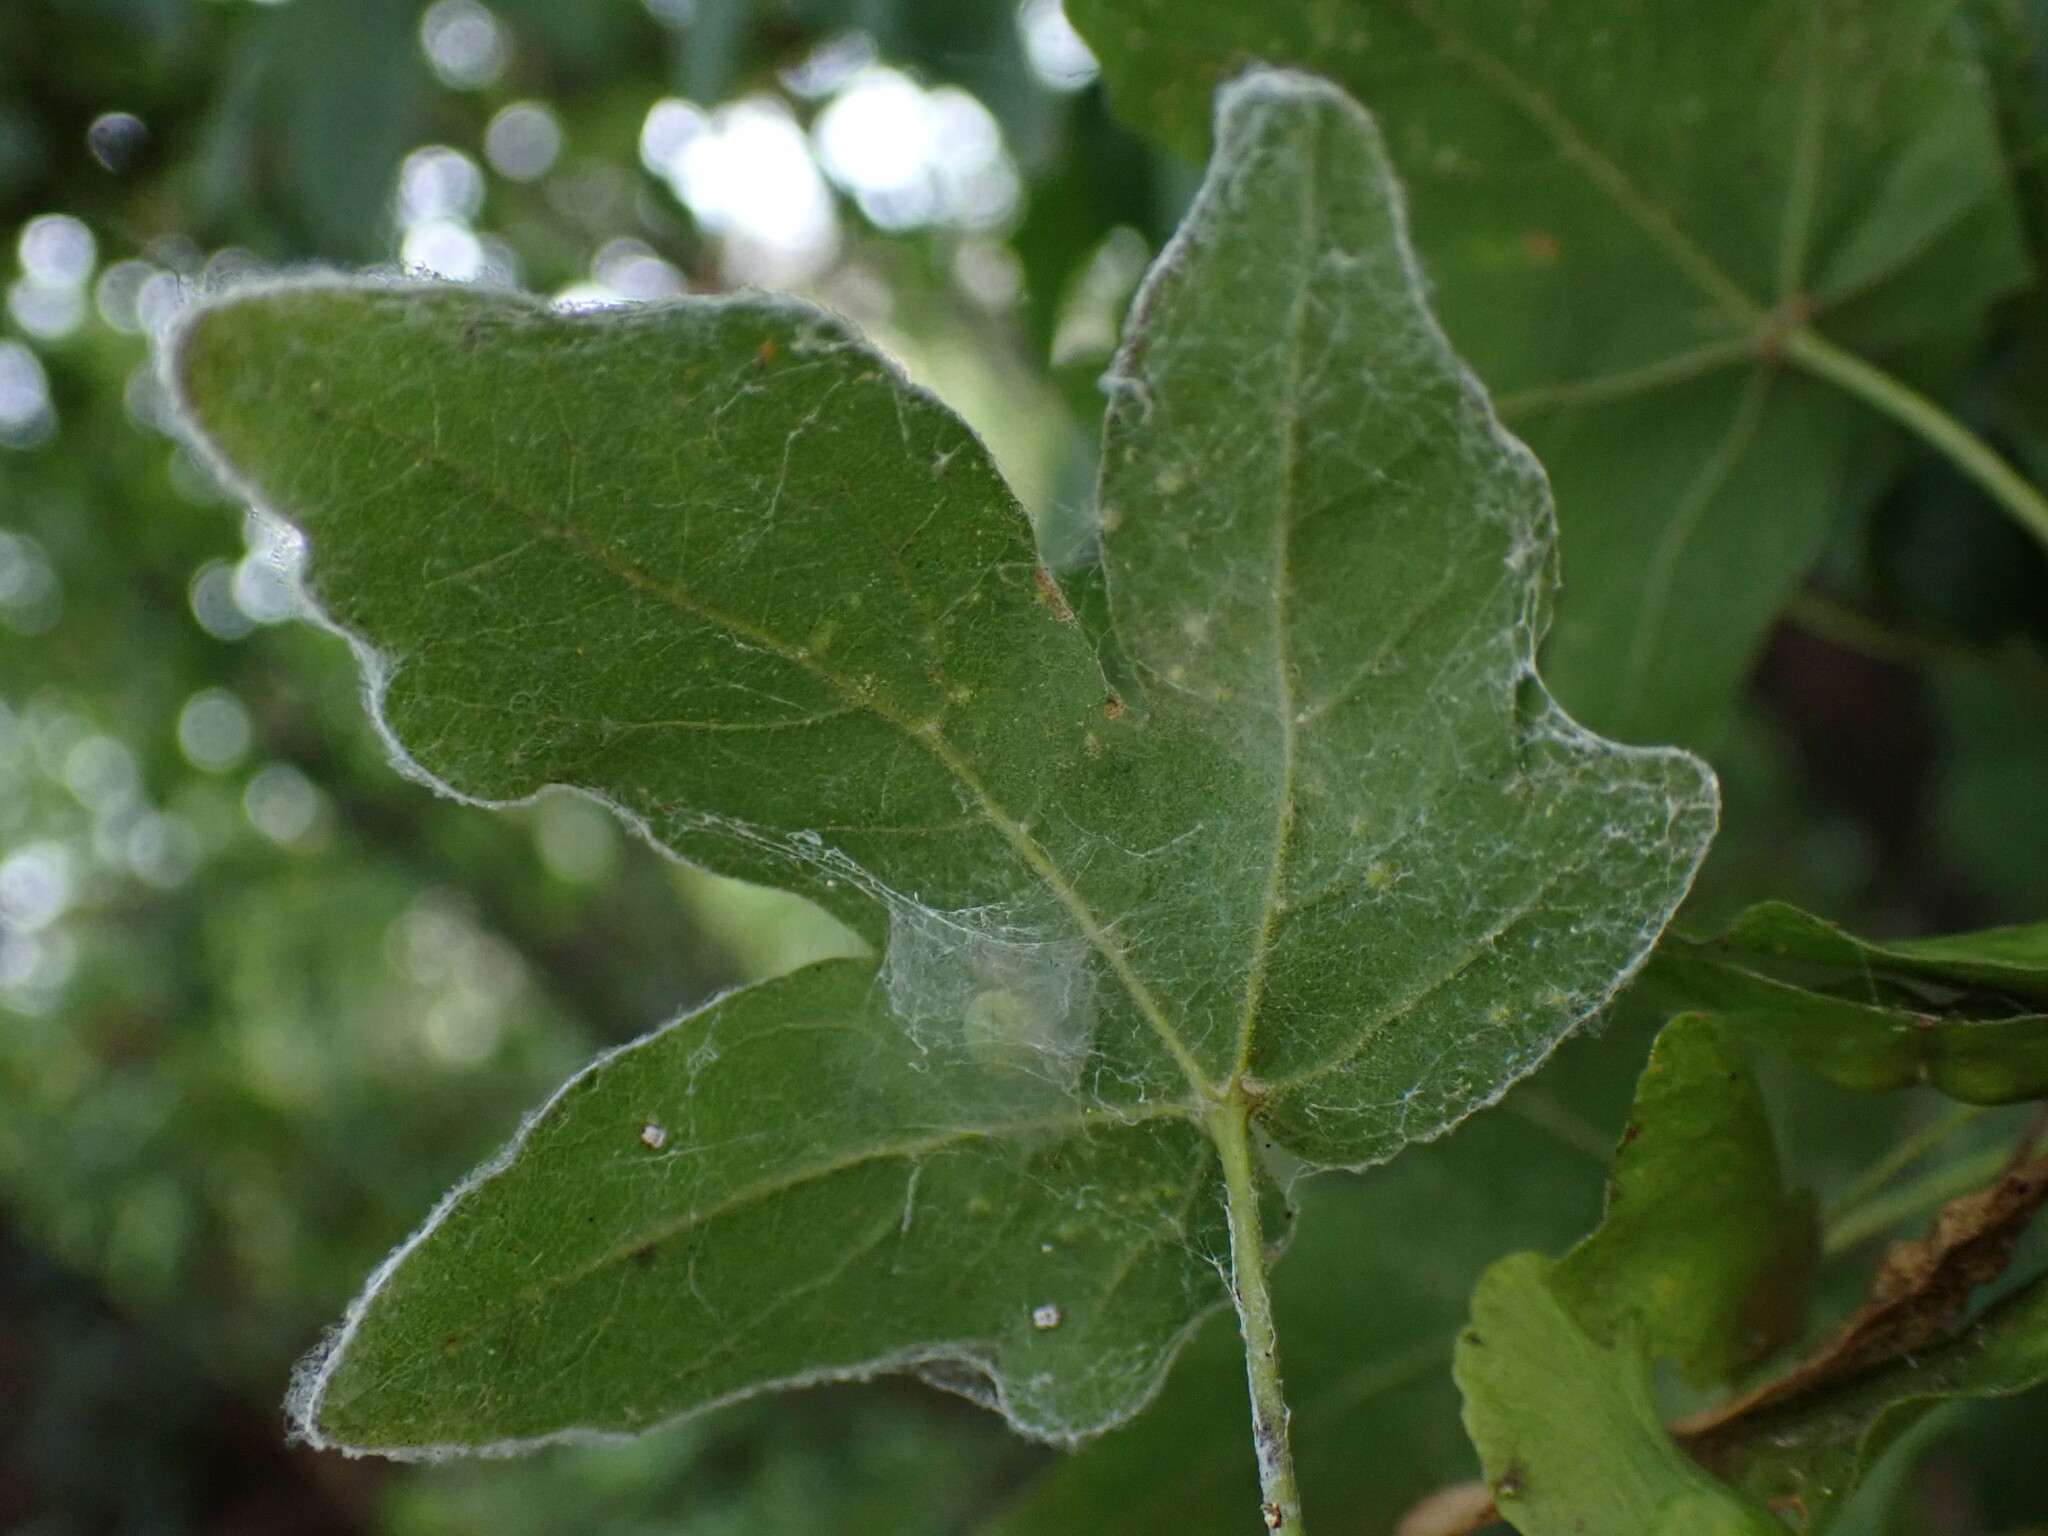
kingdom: Animalia
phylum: Arthropoda
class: Arachnida
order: Araneae
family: Dictynidae
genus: Nigma
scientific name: Nigma walckenaeri
